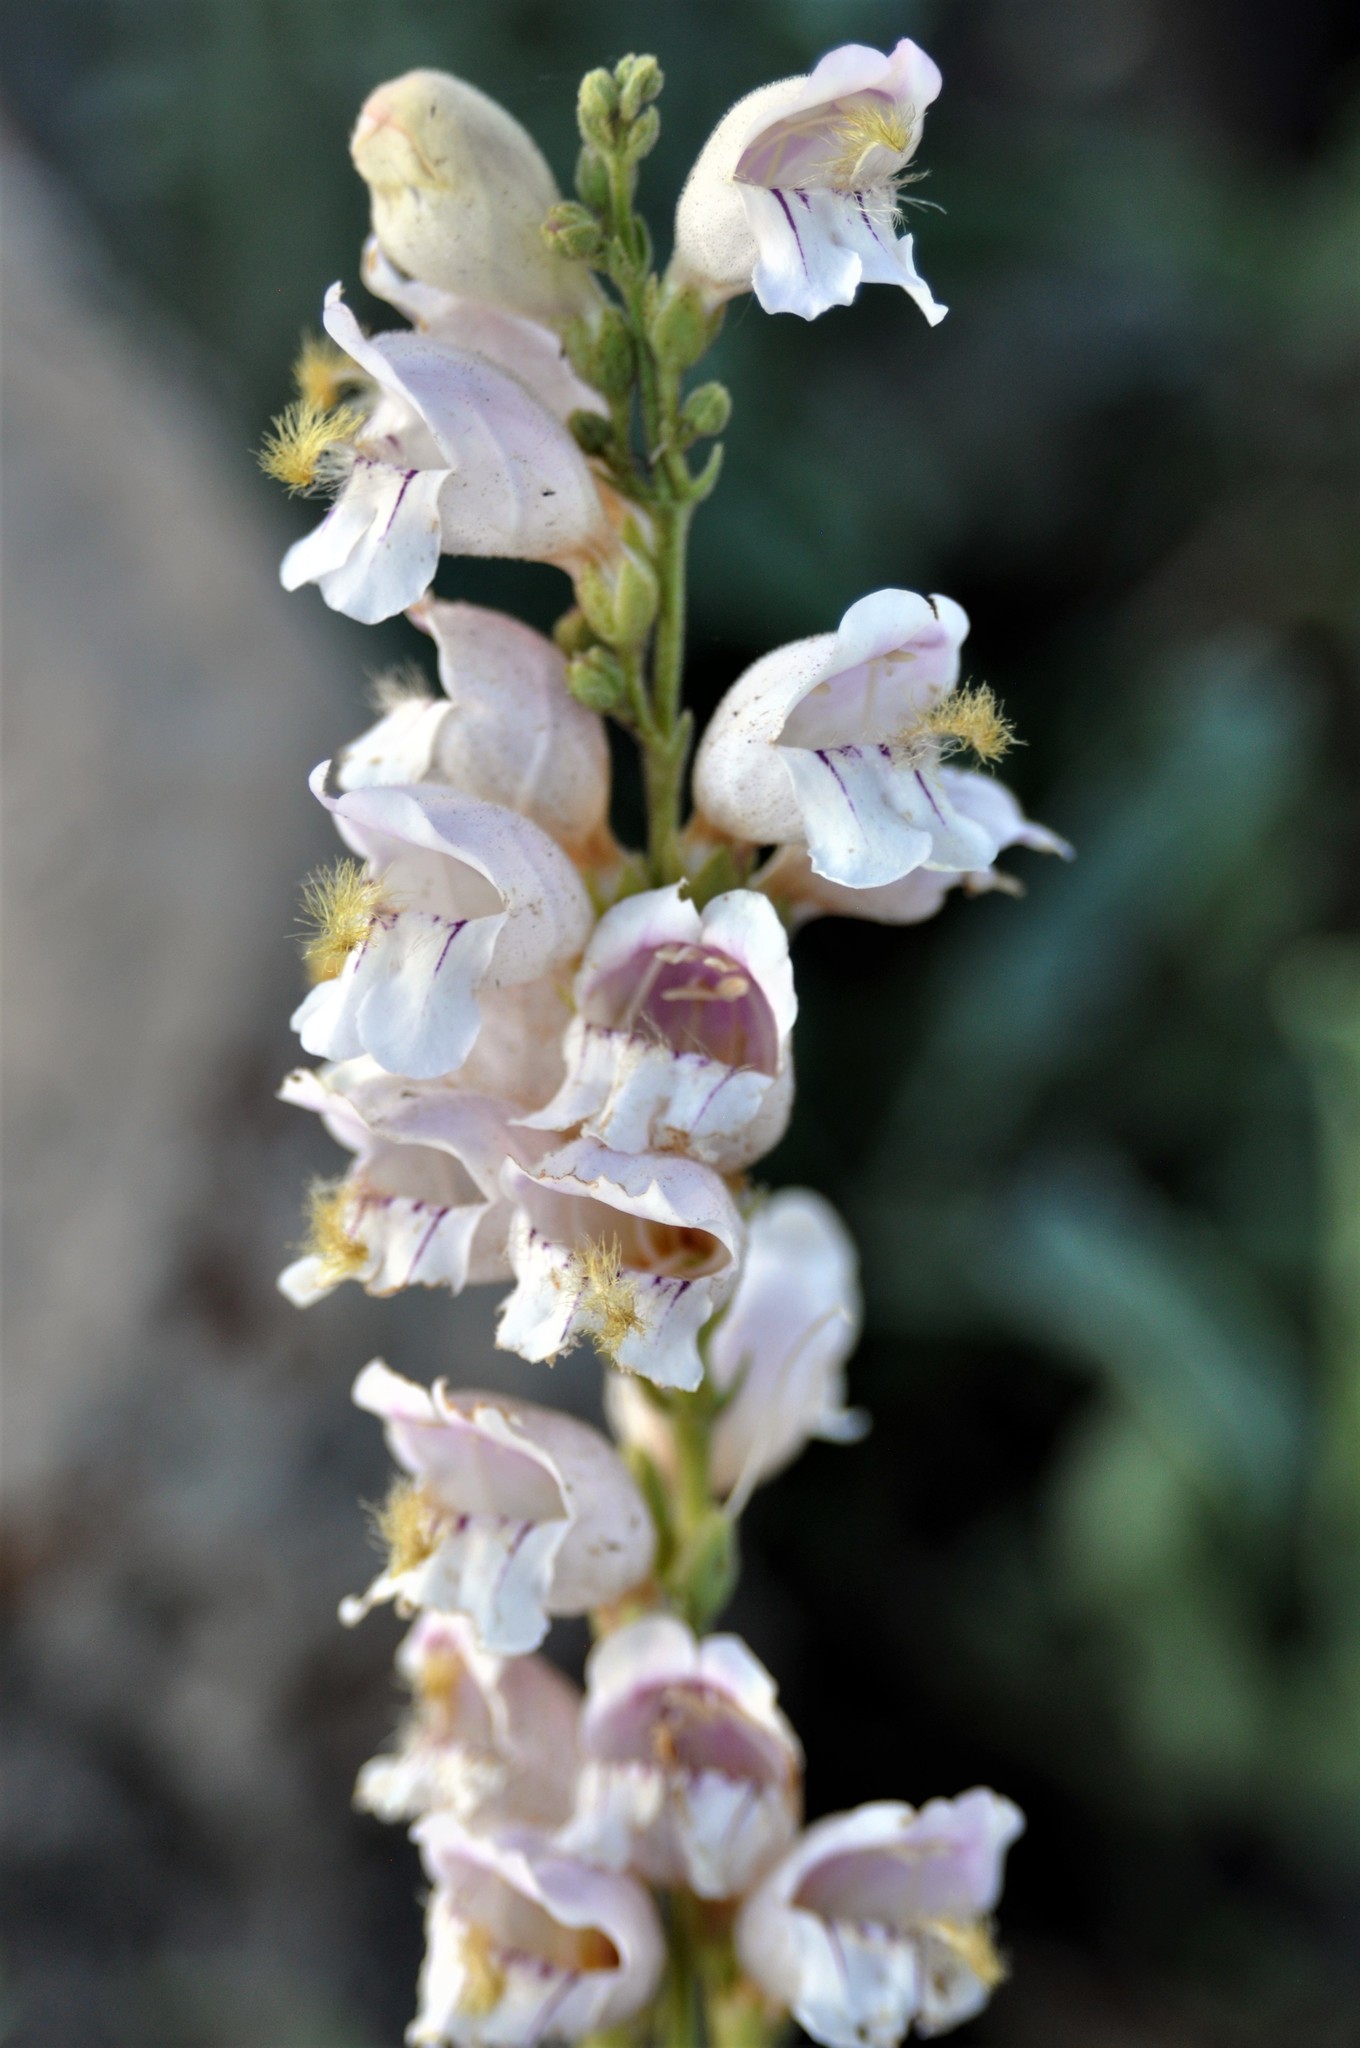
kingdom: Plantae
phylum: Tracheophyta
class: Magnoliopsida
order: Lamiales
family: Plantaginaceae
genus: Penstemon
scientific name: Penstemon palmeri
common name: Palmer penstemon
